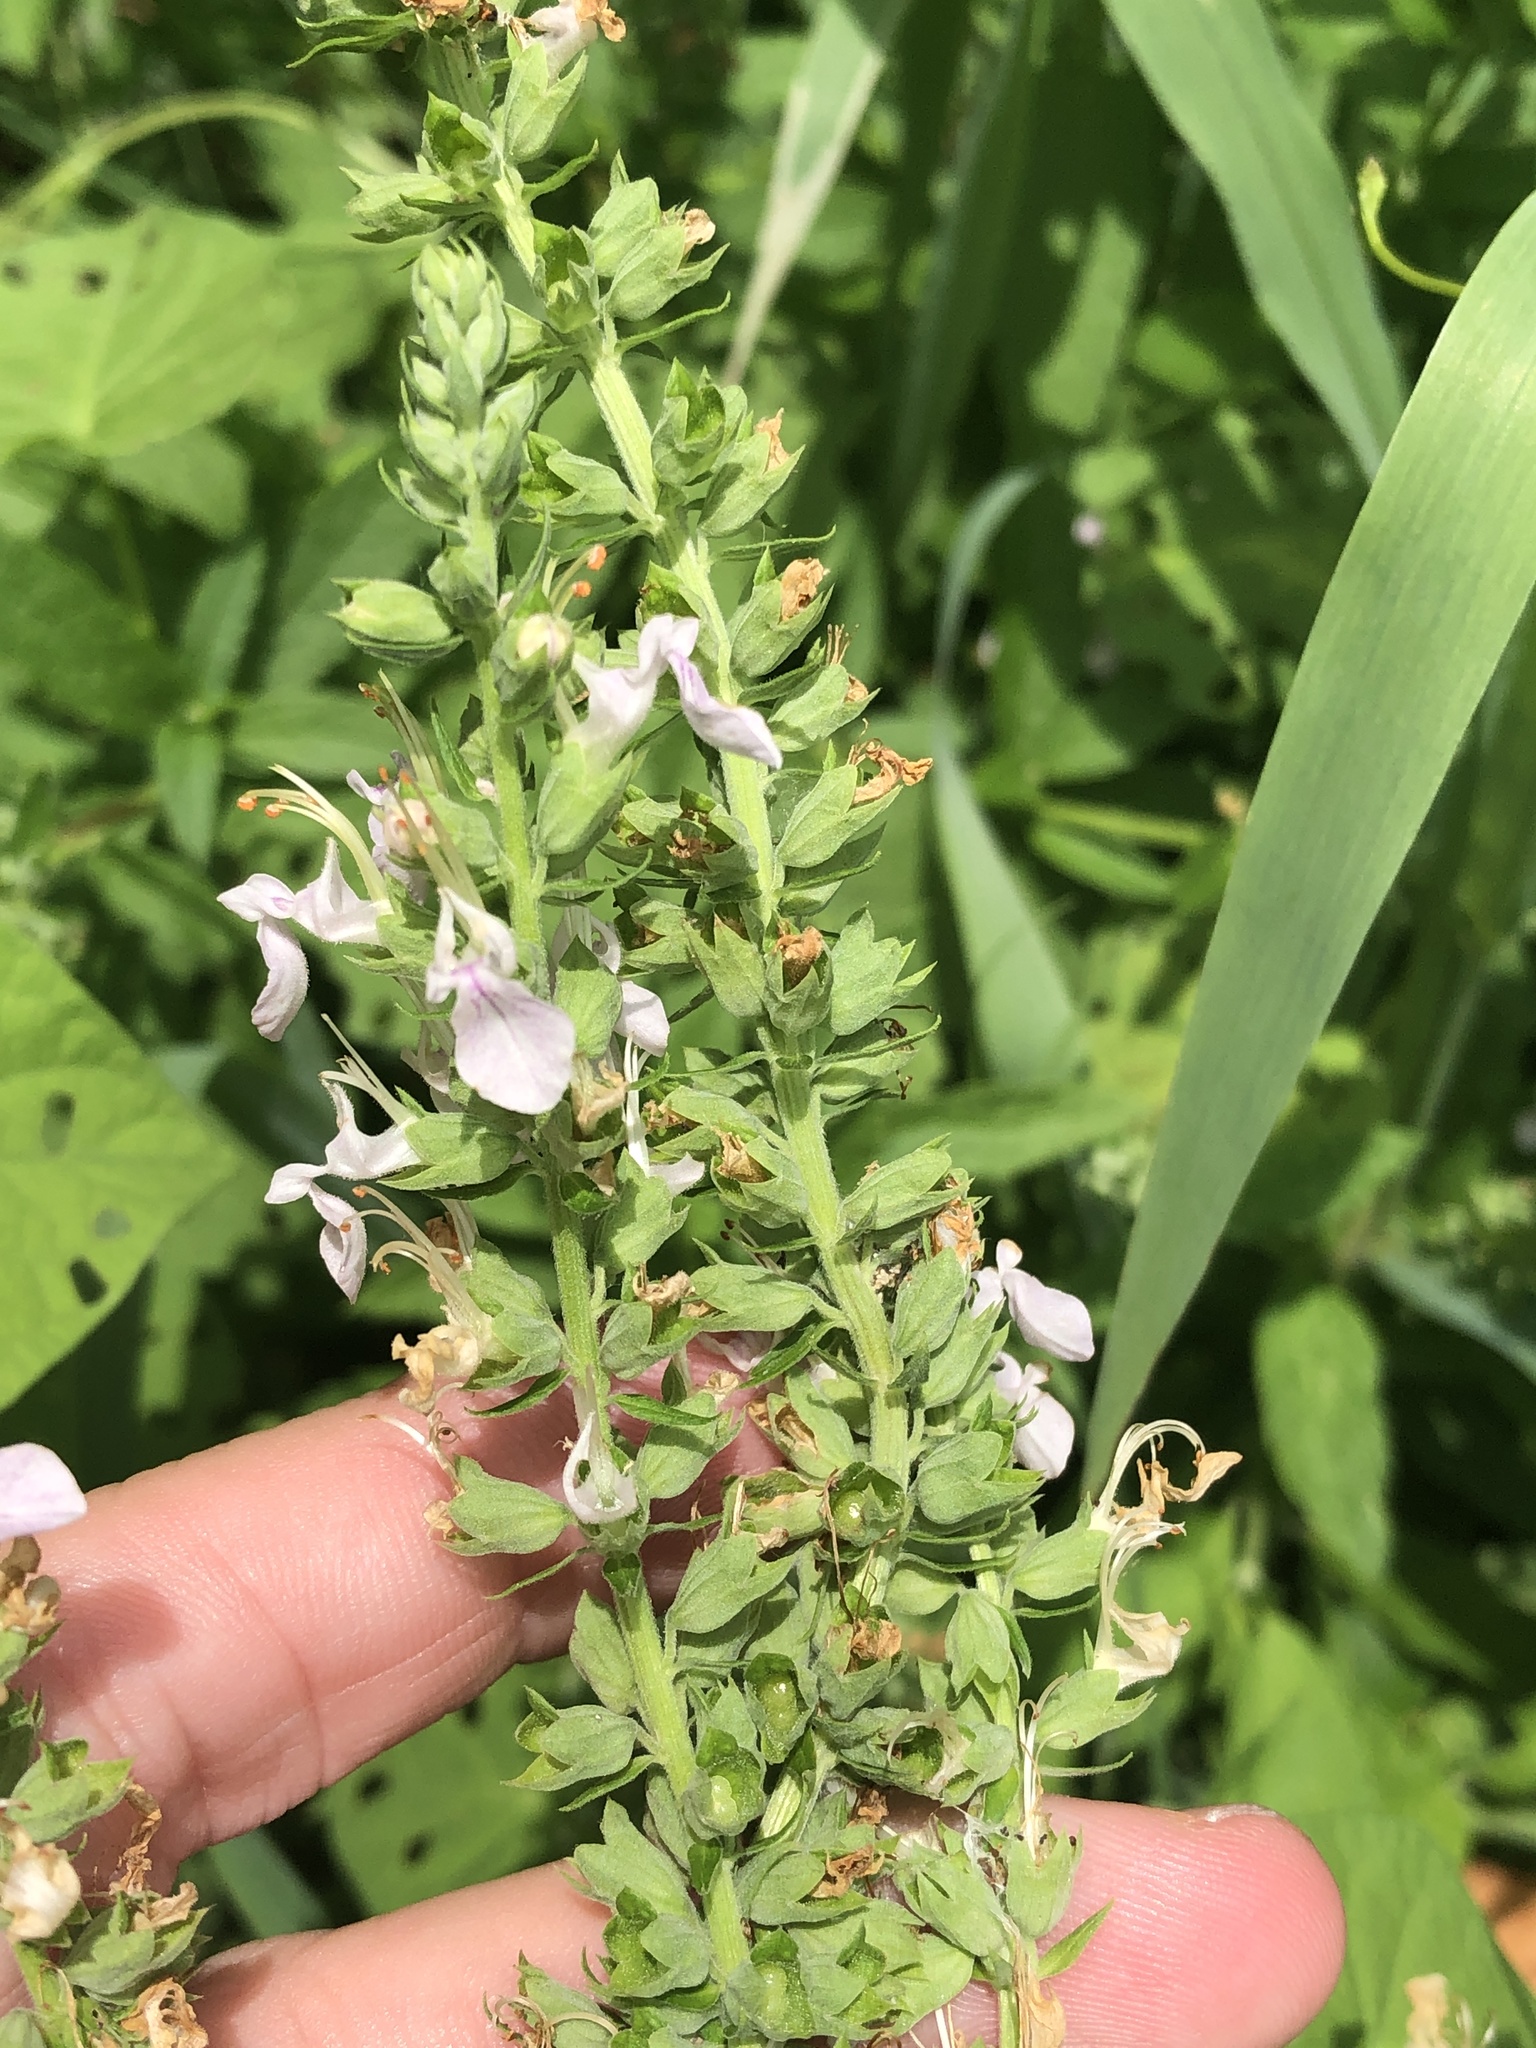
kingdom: Plantae
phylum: Tracheophyta
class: Magnoliopsida
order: Lamiales
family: Lamiaceae
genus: Teucrium
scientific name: Teucrium canadense
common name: American germander
